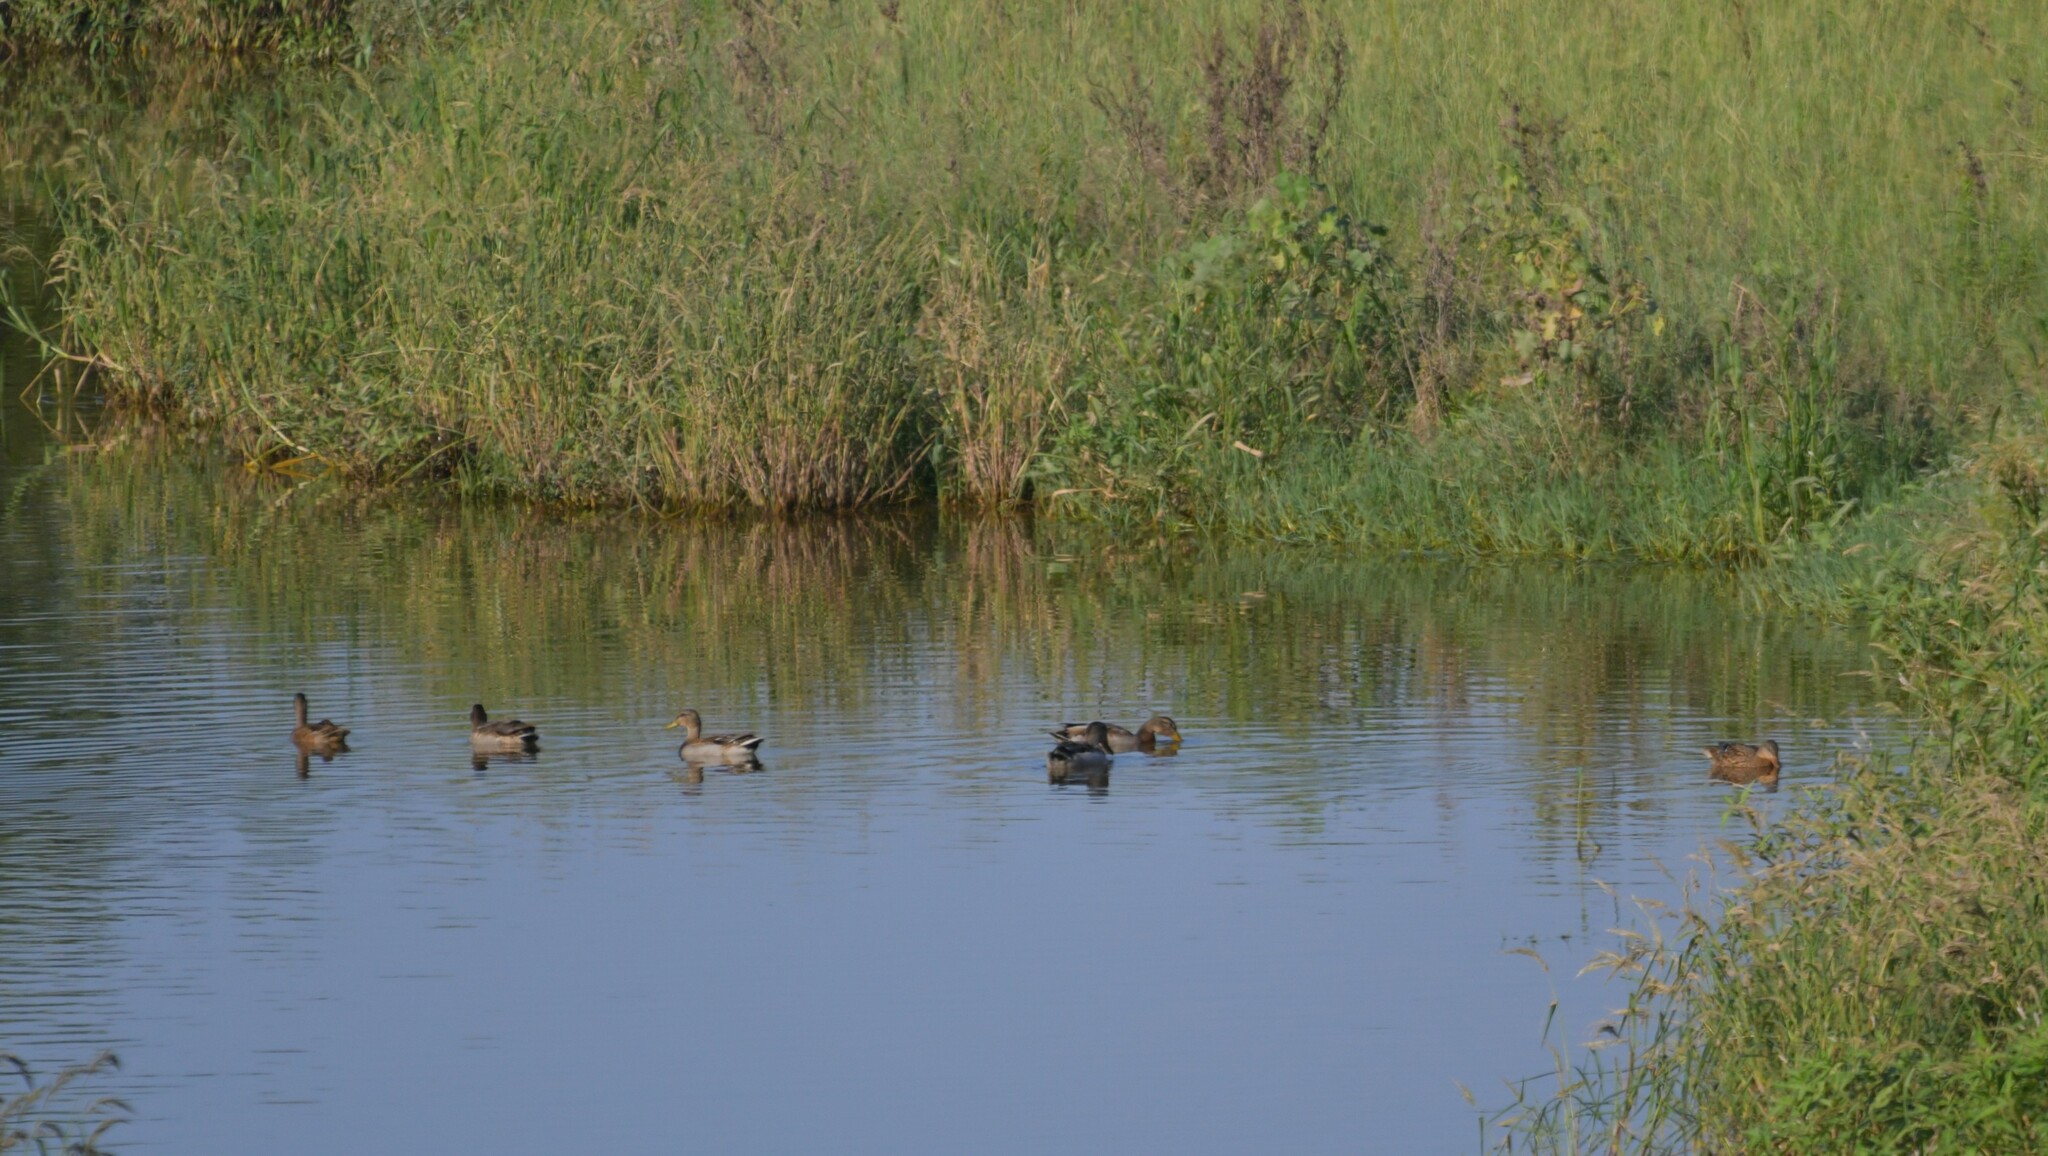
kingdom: Animalia
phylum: Chordata
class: Aves
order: Anseriformes
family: Anatidae
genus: Anas
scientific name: Anas platyrhynchos
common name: Mallard
